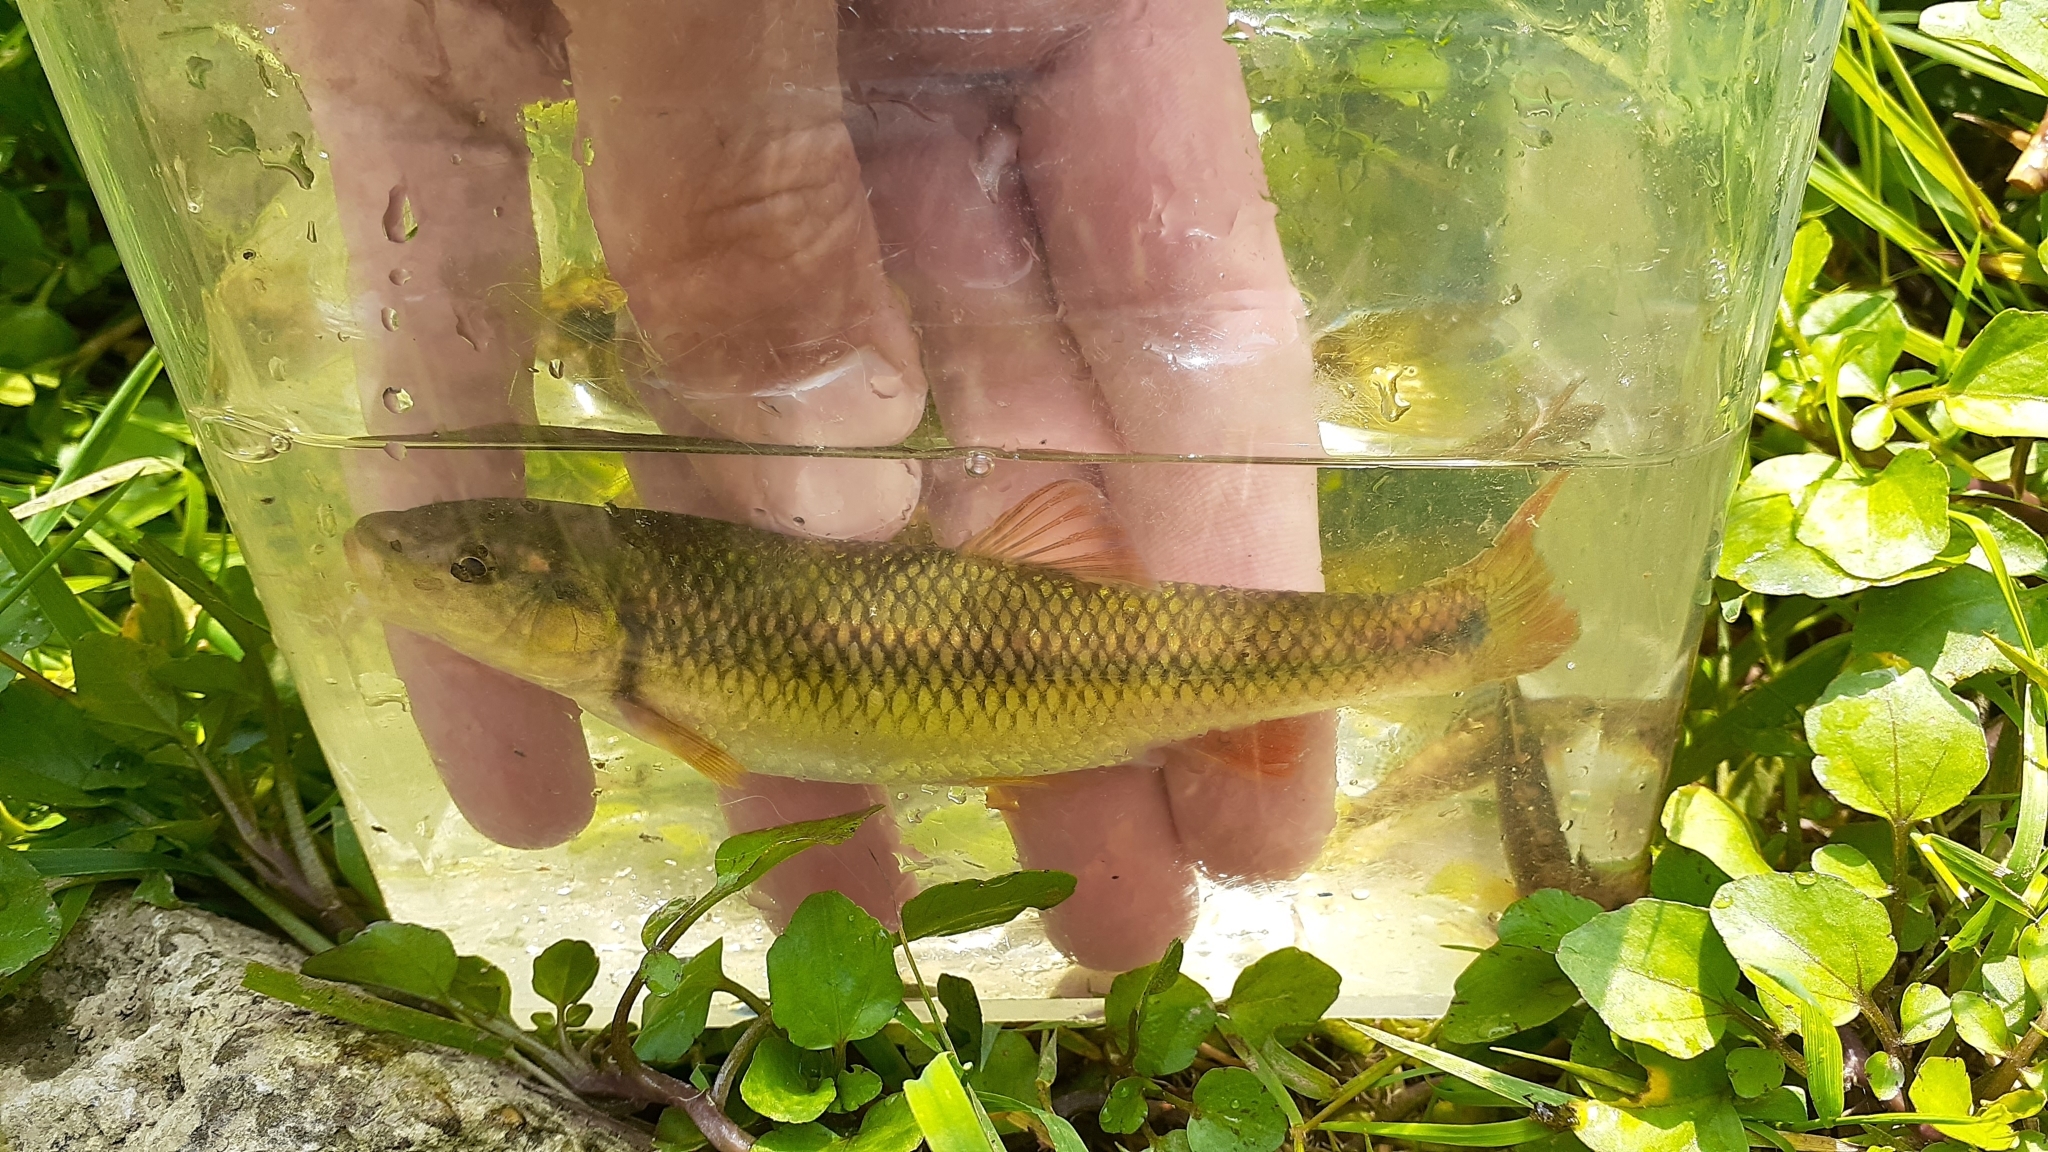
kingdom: Animalia
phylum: Chordata
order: Cypriniformes
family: Cyprinidae
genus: Nocomis
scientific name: Nocomis biguttatus
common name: Hornyhead chub
